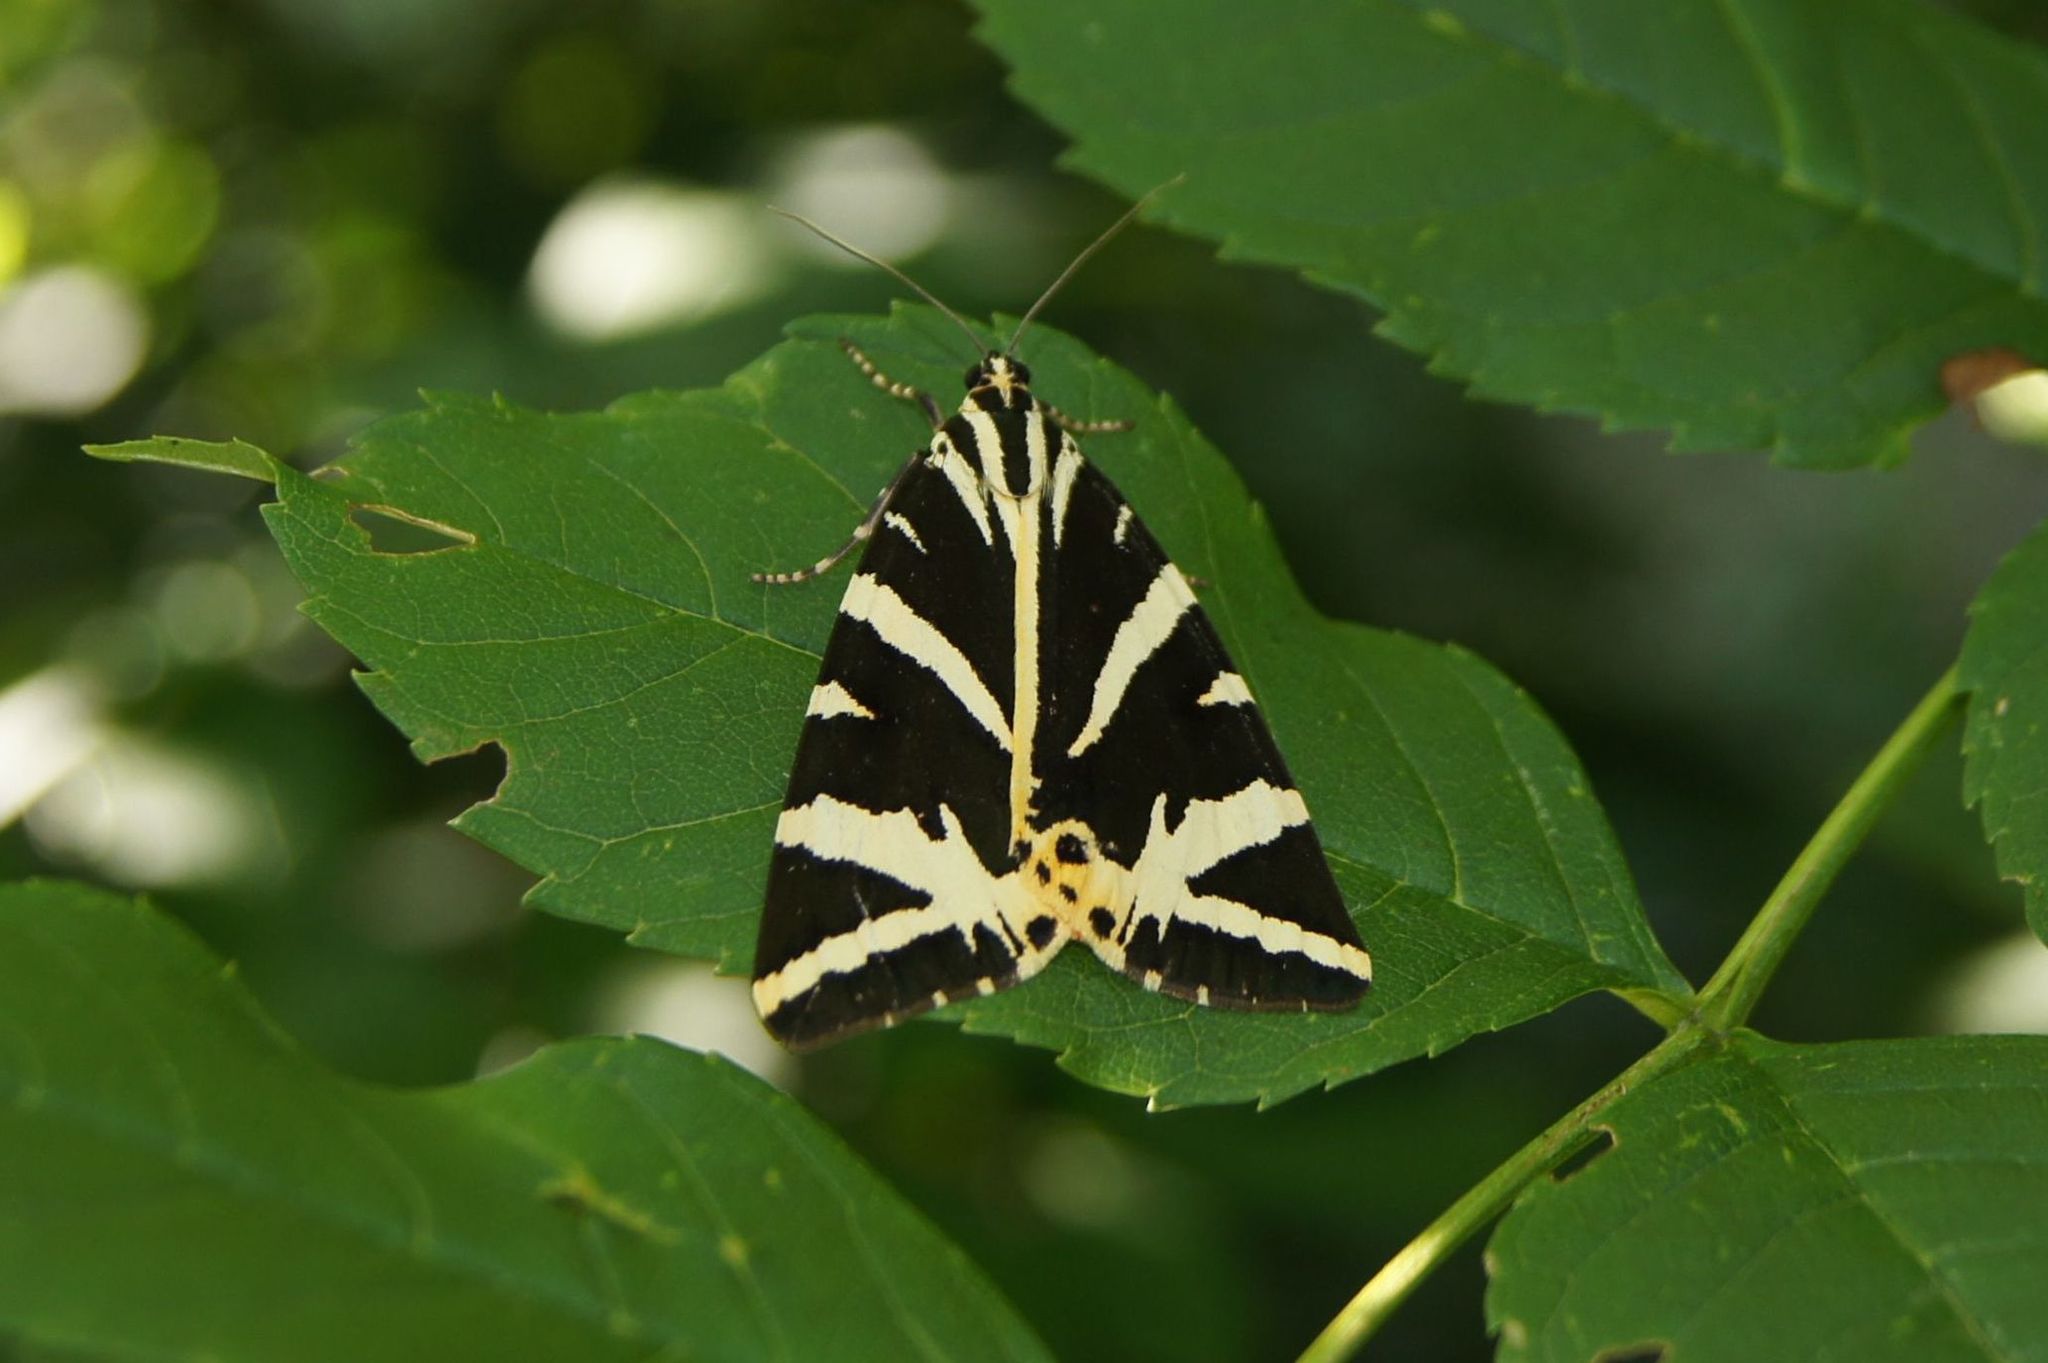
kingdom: Animalia
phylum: Arthropoda
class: Insecta
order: Lepidoptera
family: Erebidae
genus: Euplagia
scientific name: Euplagia quadripunctaria
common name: Jersey tiger
